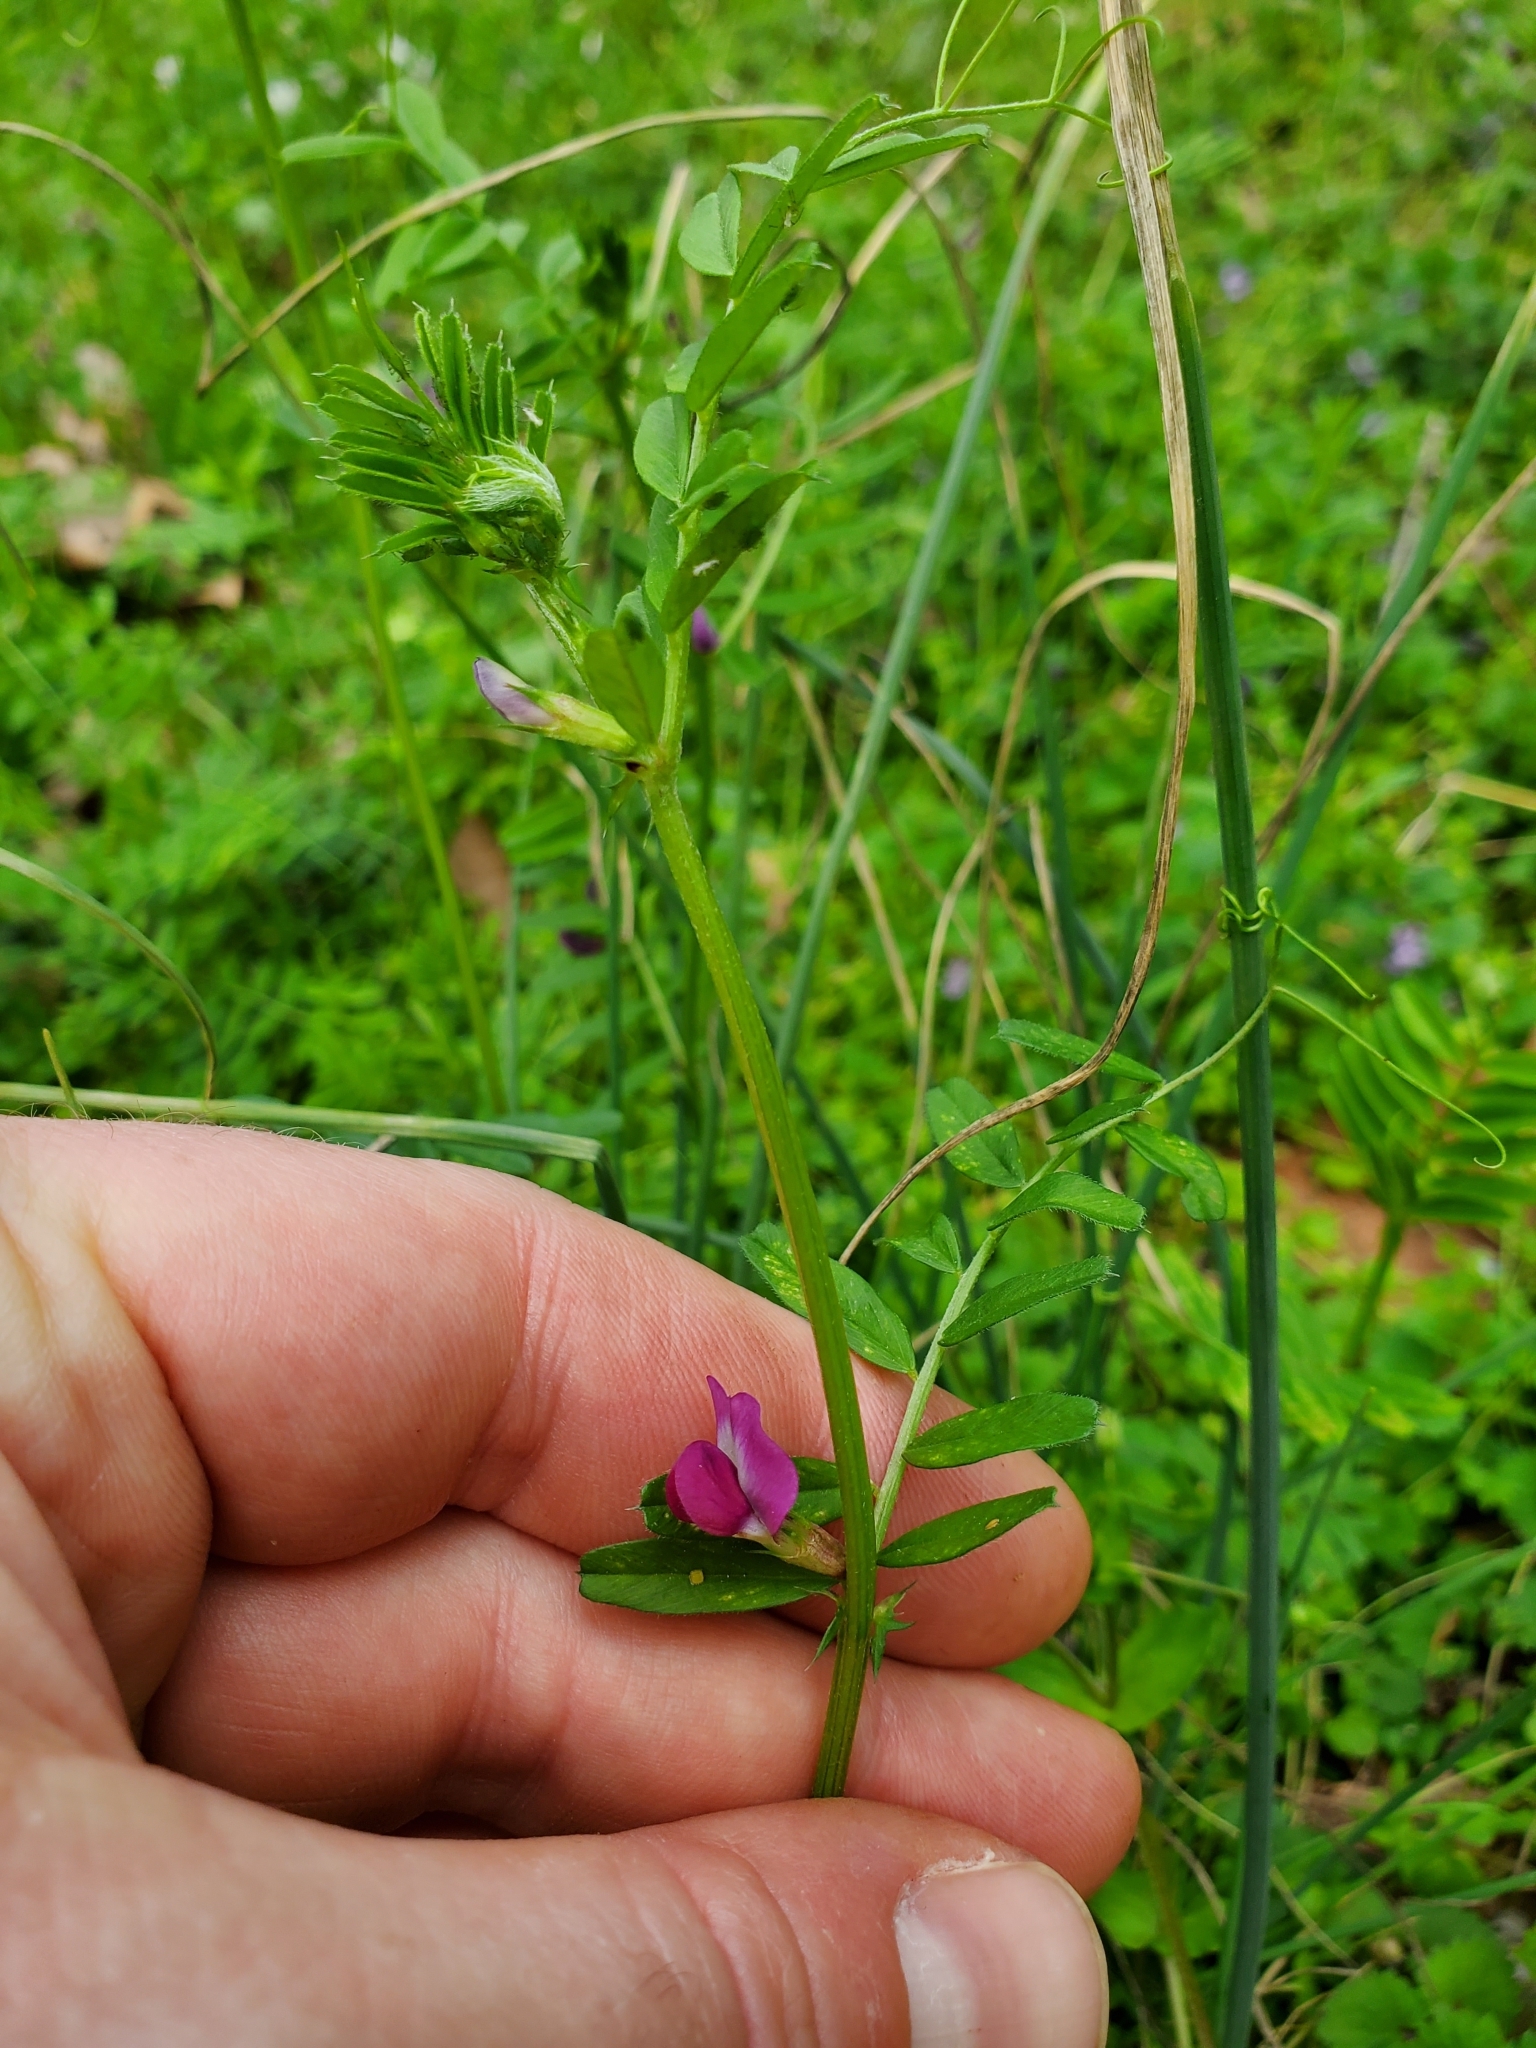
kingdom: Plantae
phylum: Tracheophyta
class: Magnoliopsida
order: Fabales
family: Fabaceae
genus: Vicia
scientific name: Vicia sativa
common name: Garden vetch
